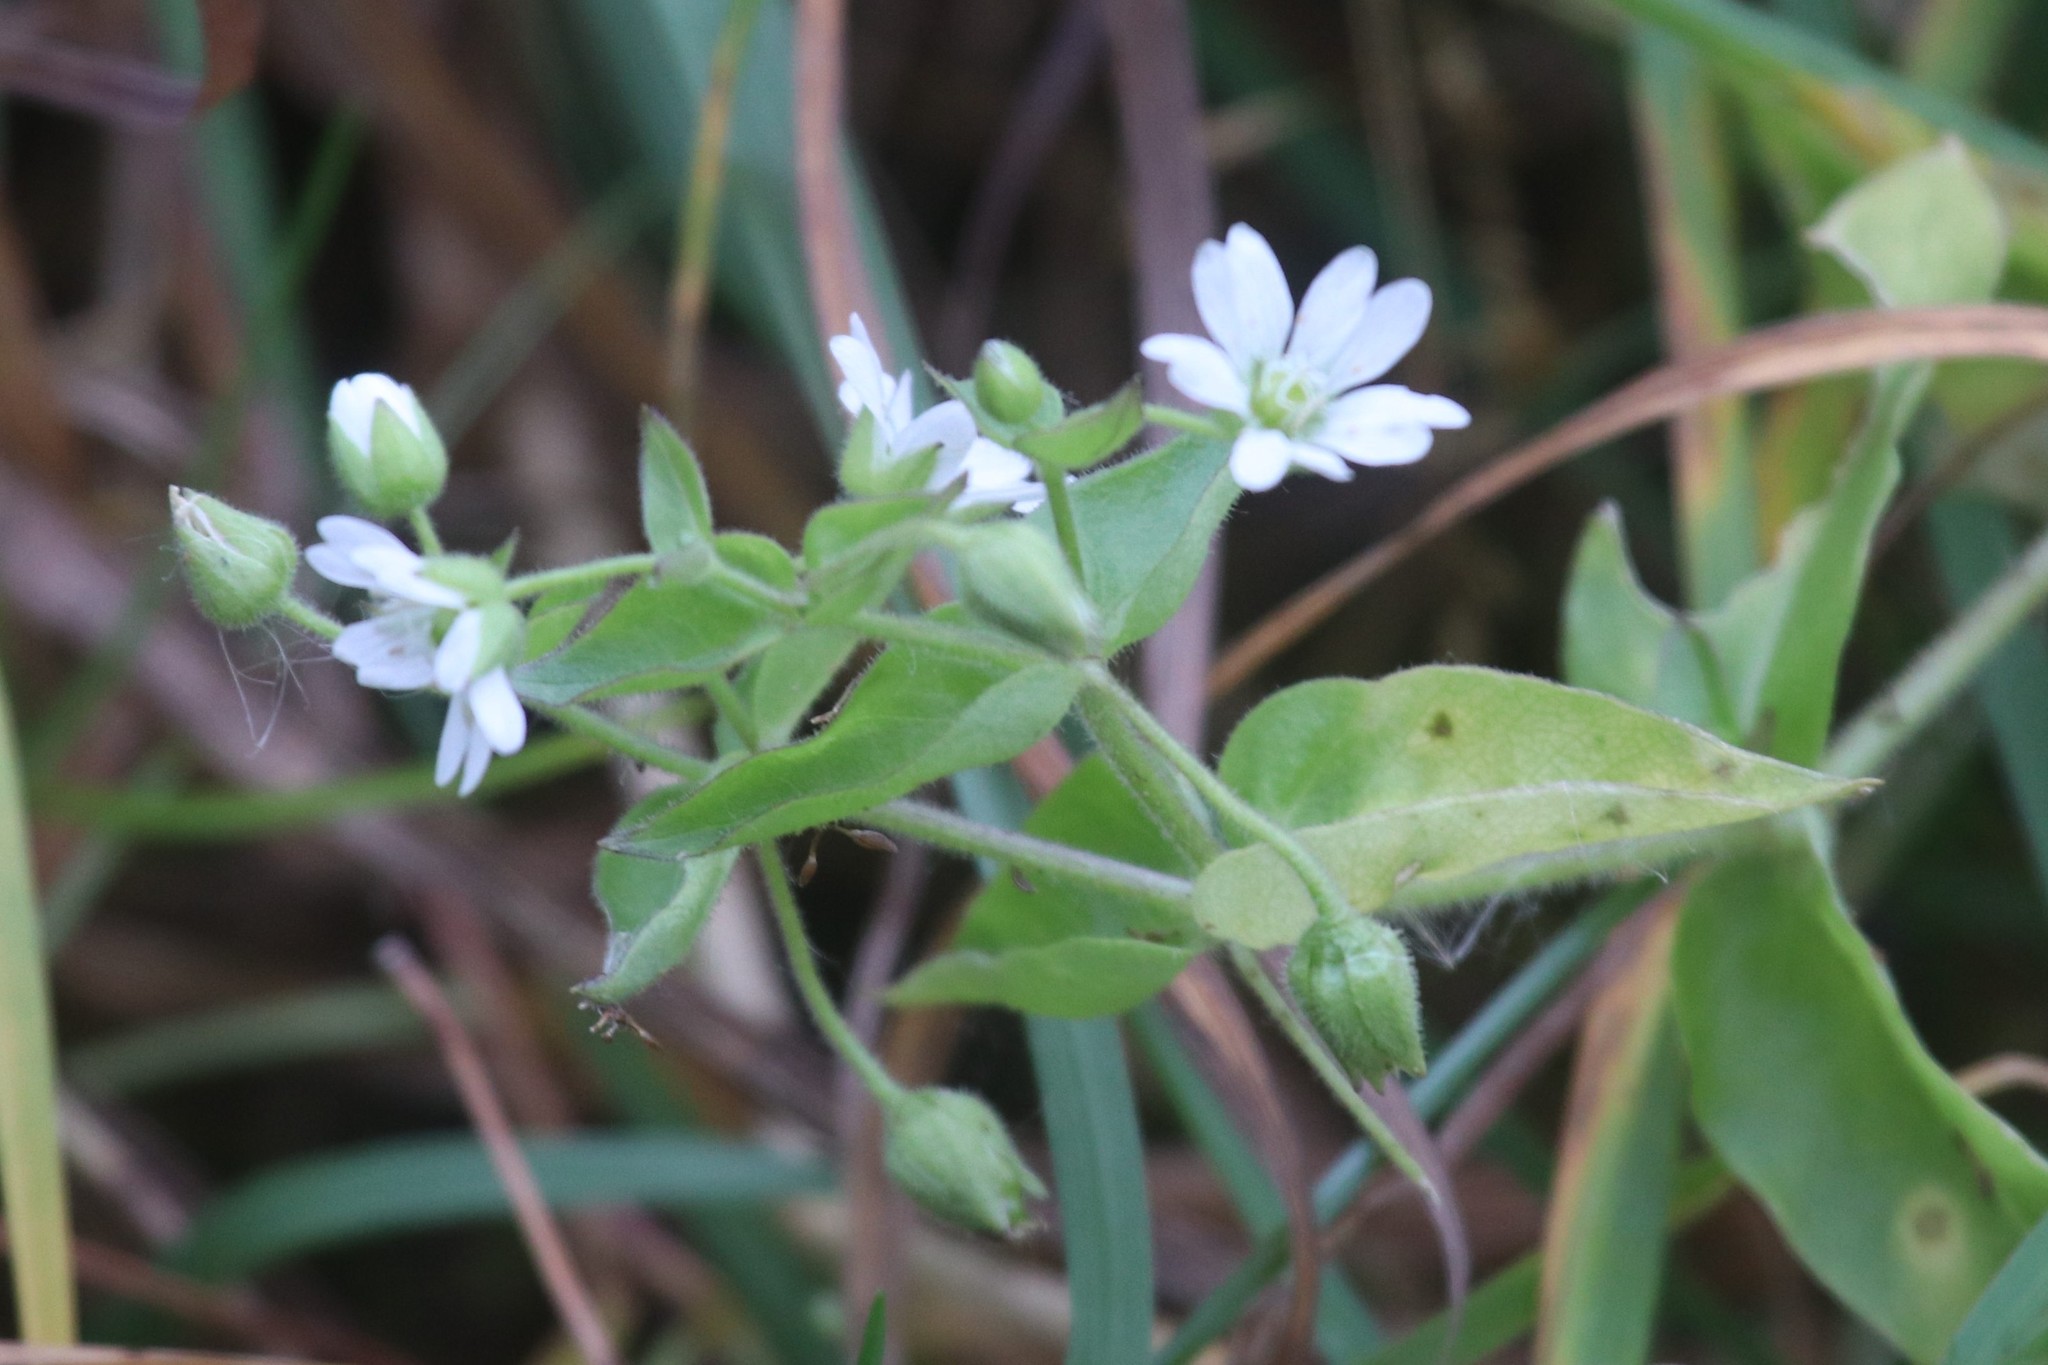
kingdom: Plantae
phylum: Tracheophyta
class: Magnoliopsida
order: Caryophyllales
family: Caryophyllaceae
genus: Stellaria
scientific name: Stellaria aquatica
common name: Water chickweed
